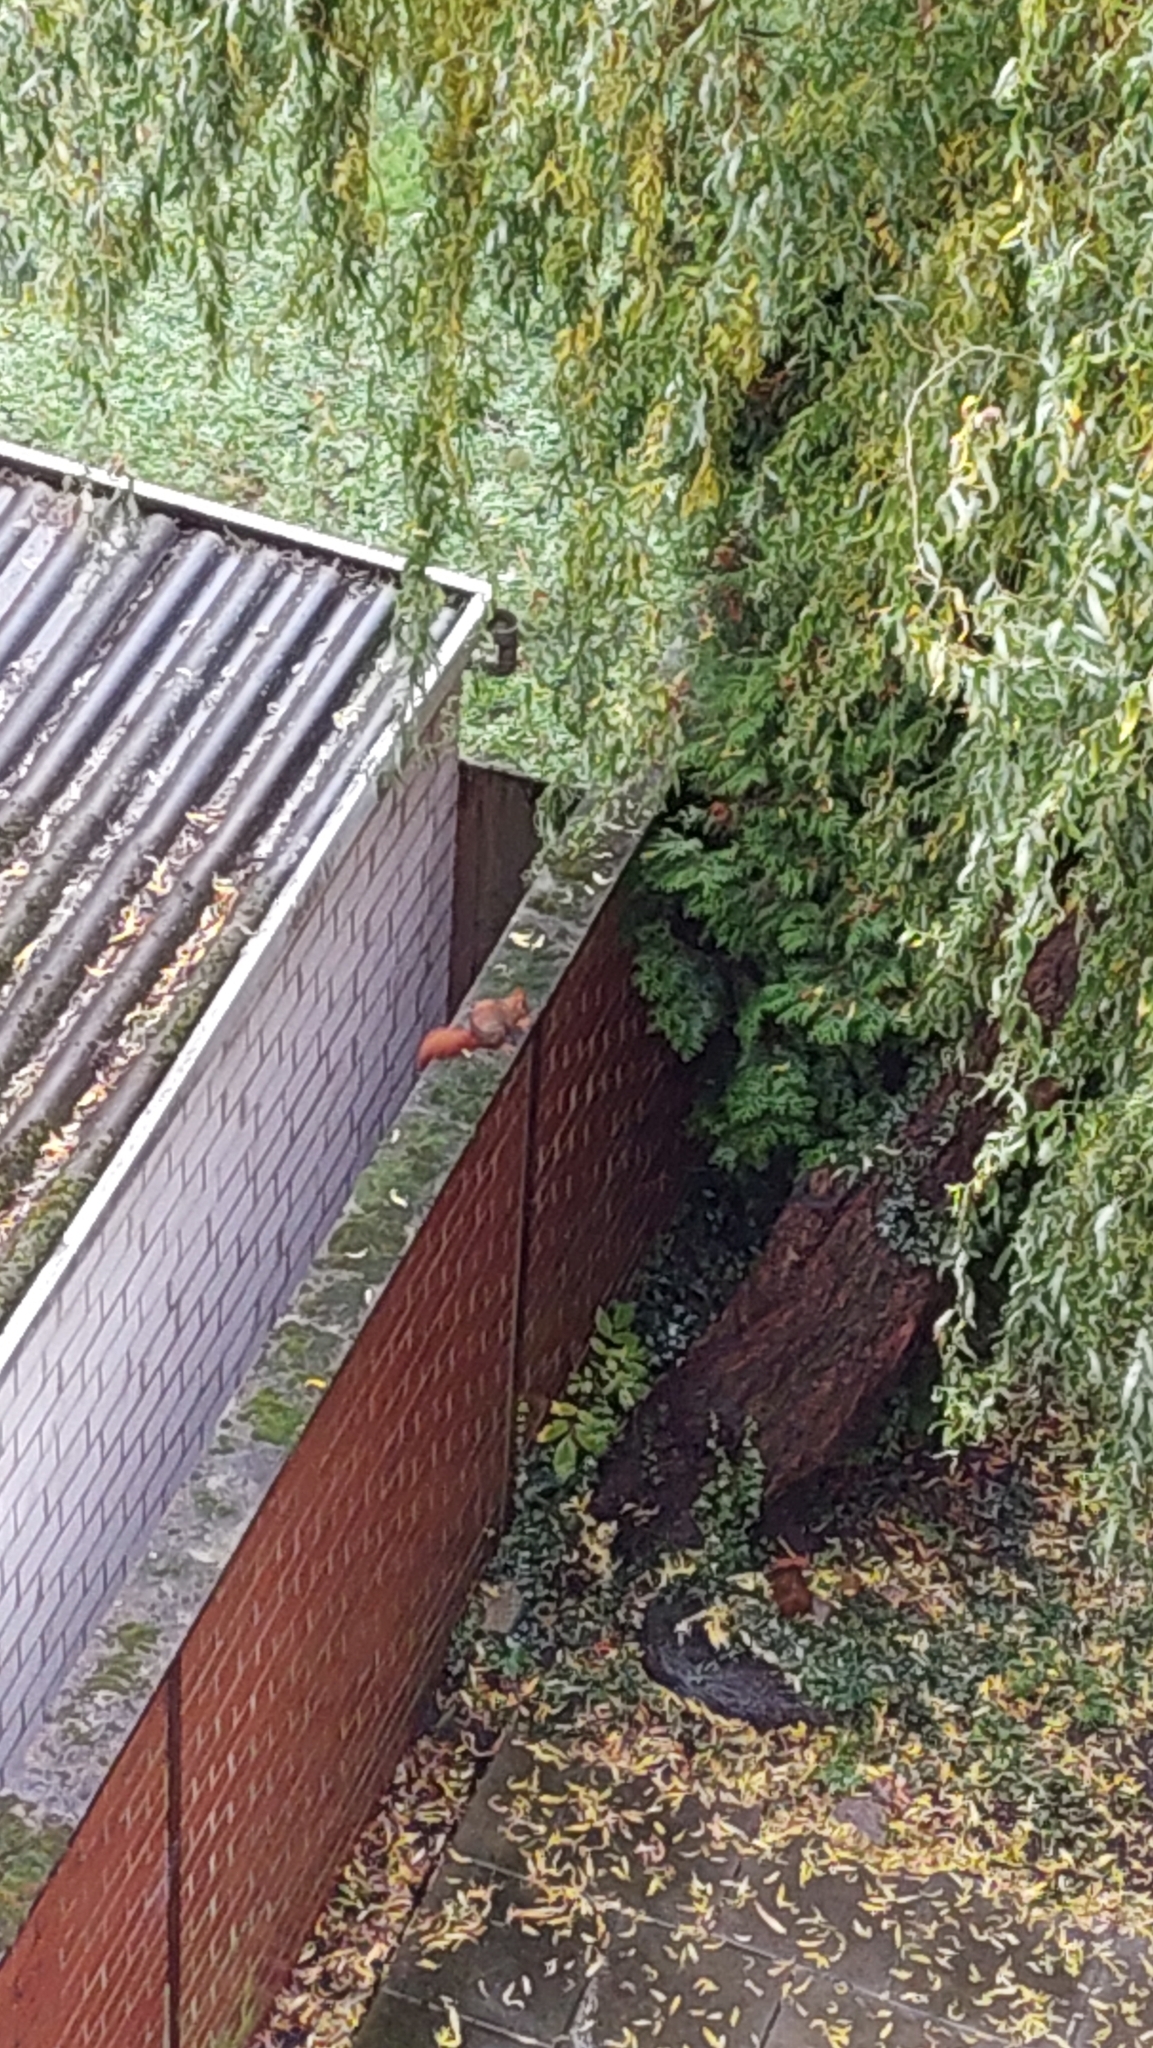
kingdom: Animalia
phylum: Chordata
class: Mammalia
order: Rodentia
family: Sciuridae
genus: Sciurus
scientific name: Sciurus vulgaris
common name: Eurasian red squirrel
